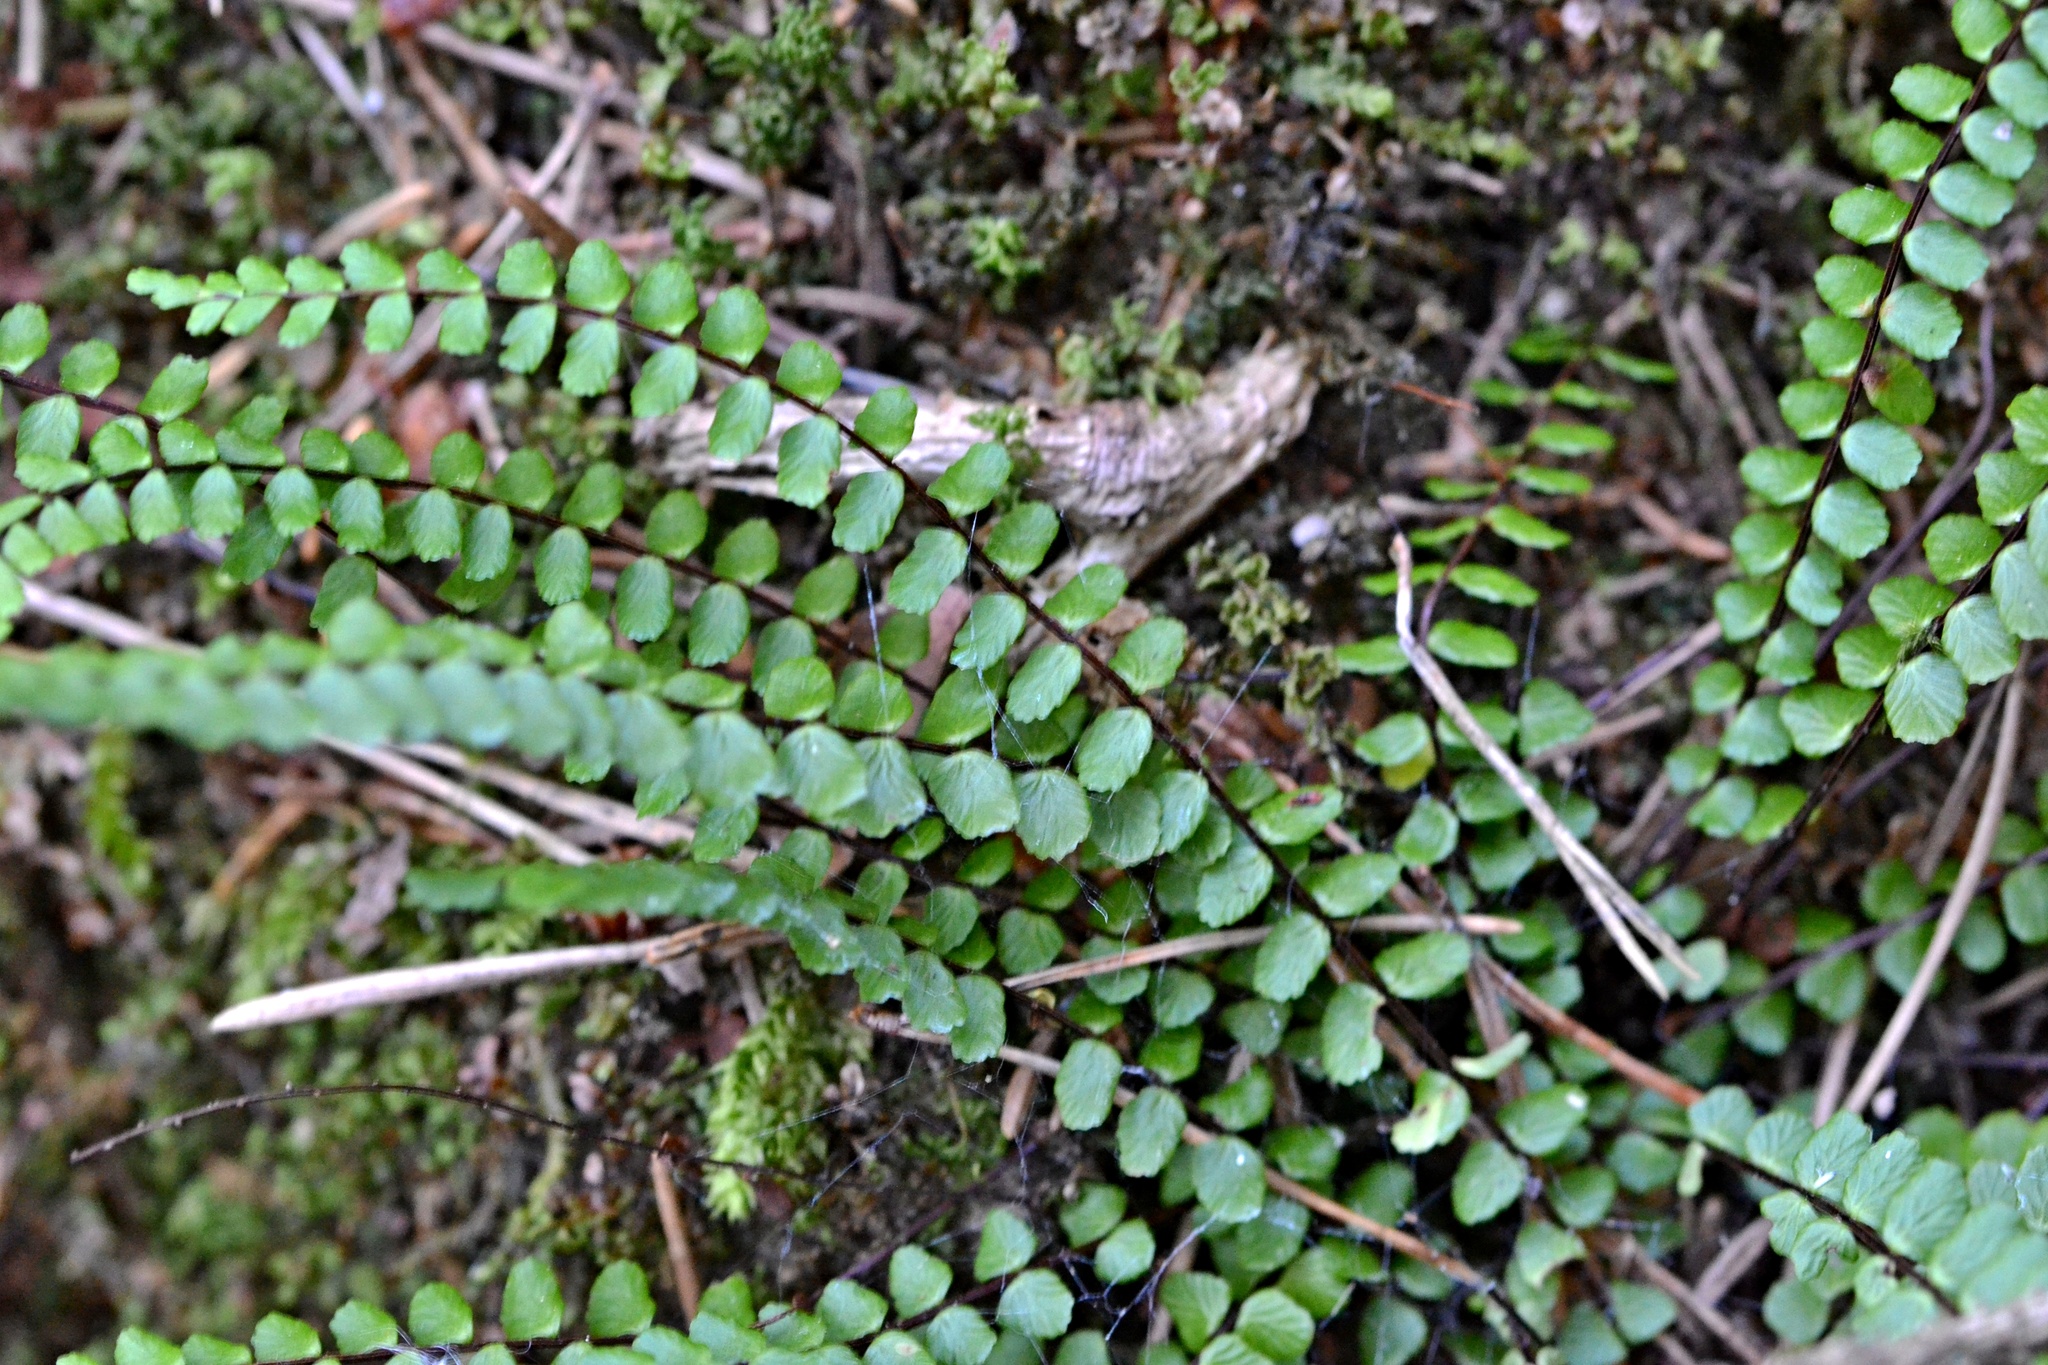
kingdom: Plantae
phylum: Tracheophyta
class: Polypodiopsida
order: Polypodiales
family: Aspleniaceae
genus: Asplenium
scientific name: Asplenium trichomanes
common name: Maidenhair spleenwort
